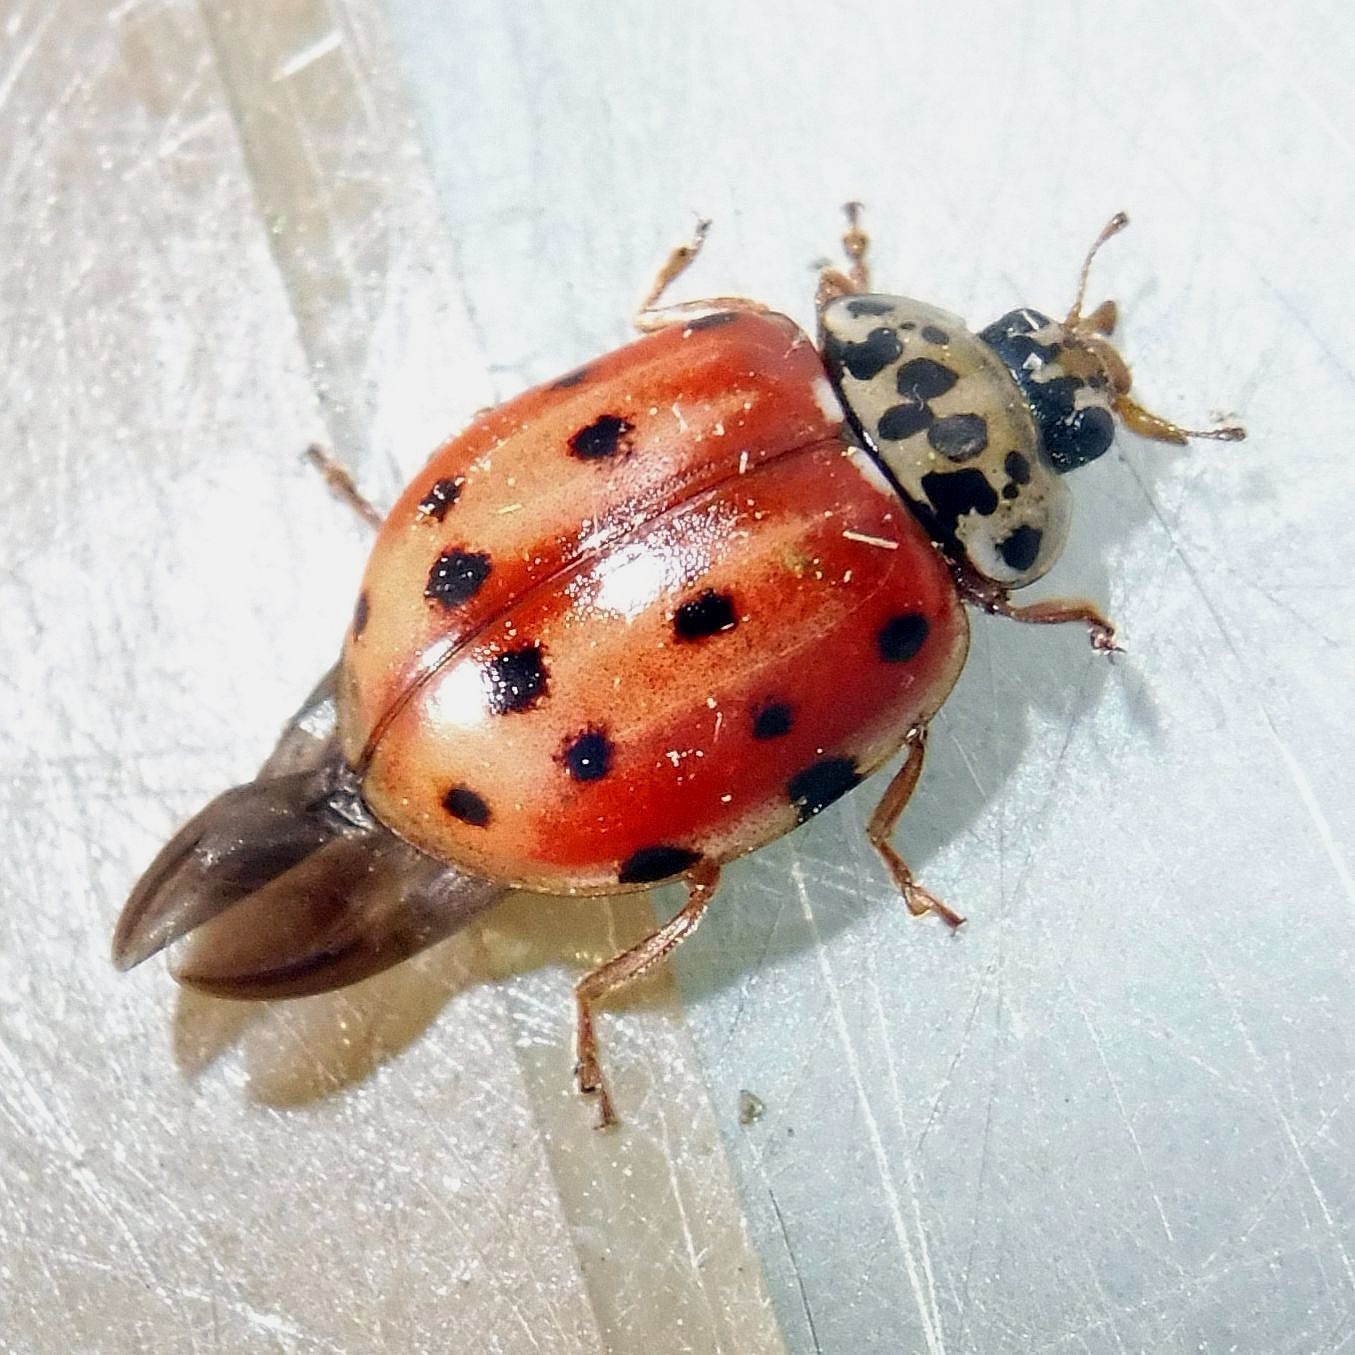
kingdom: Animalia
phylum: Arthropoda
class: Insecta
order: Coleoptera
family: Coccinellidae
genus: Harmonia
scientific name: Harmonia quadripunctata
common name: Cream-streaked ladybird
